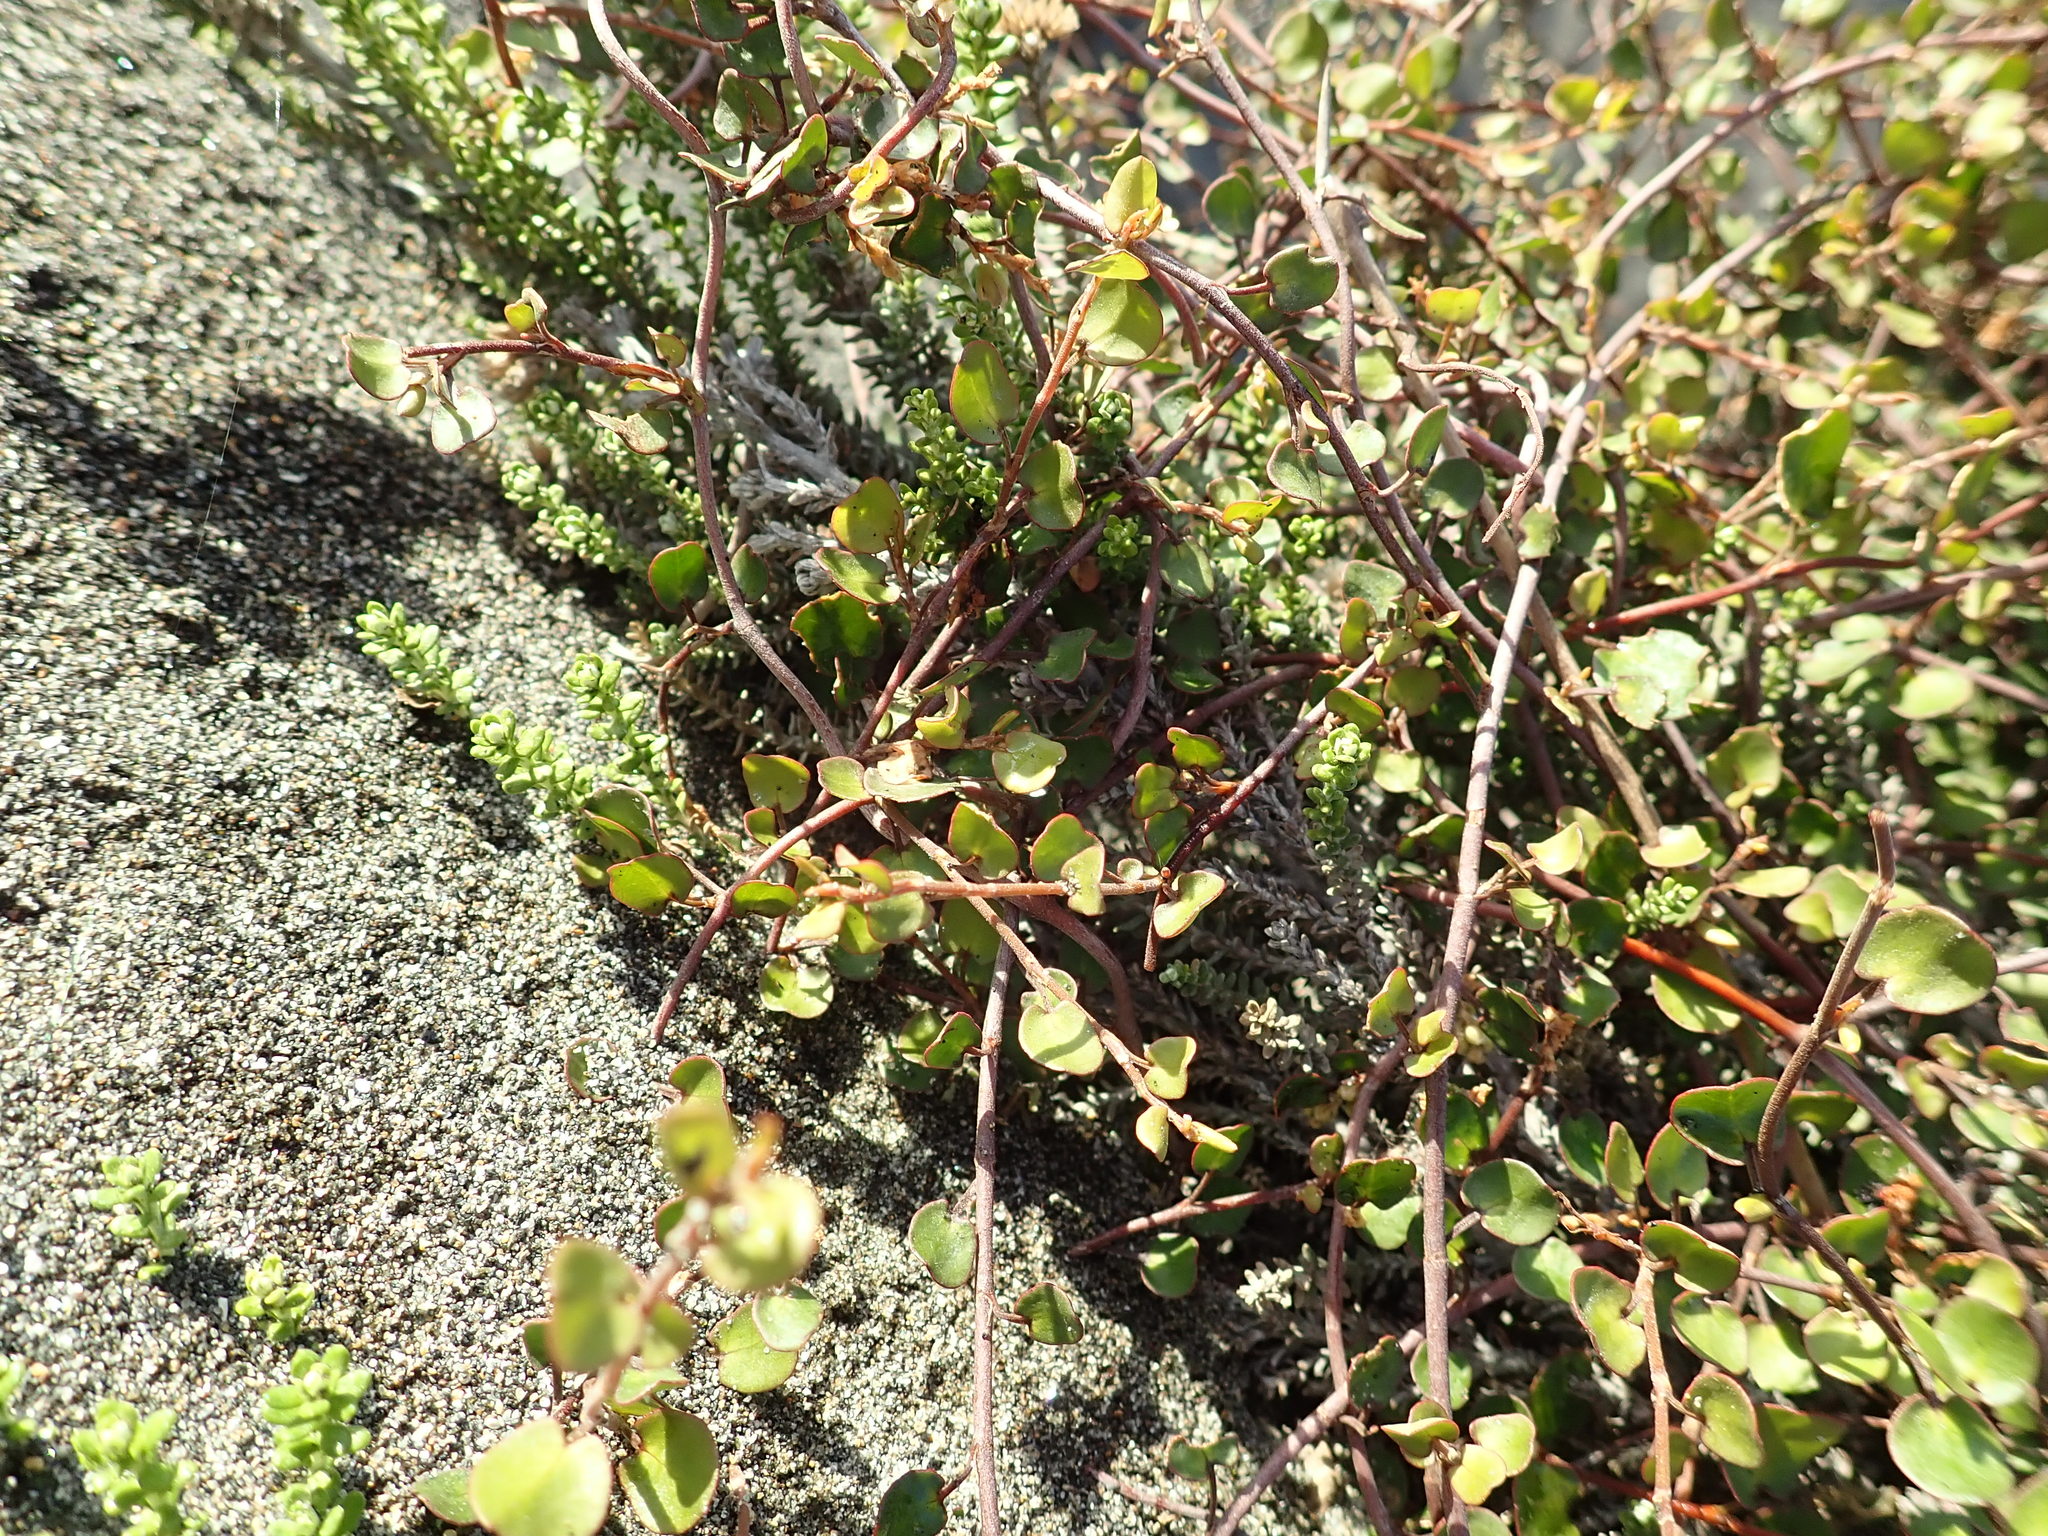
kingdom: Plantae
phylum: Tracheophyta
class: Magnoliopsida
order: Caryophyllales
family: Polygonaceae
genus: Muehlenbeckia
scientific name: Muehlenbeckia complexa
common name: Wireplant
